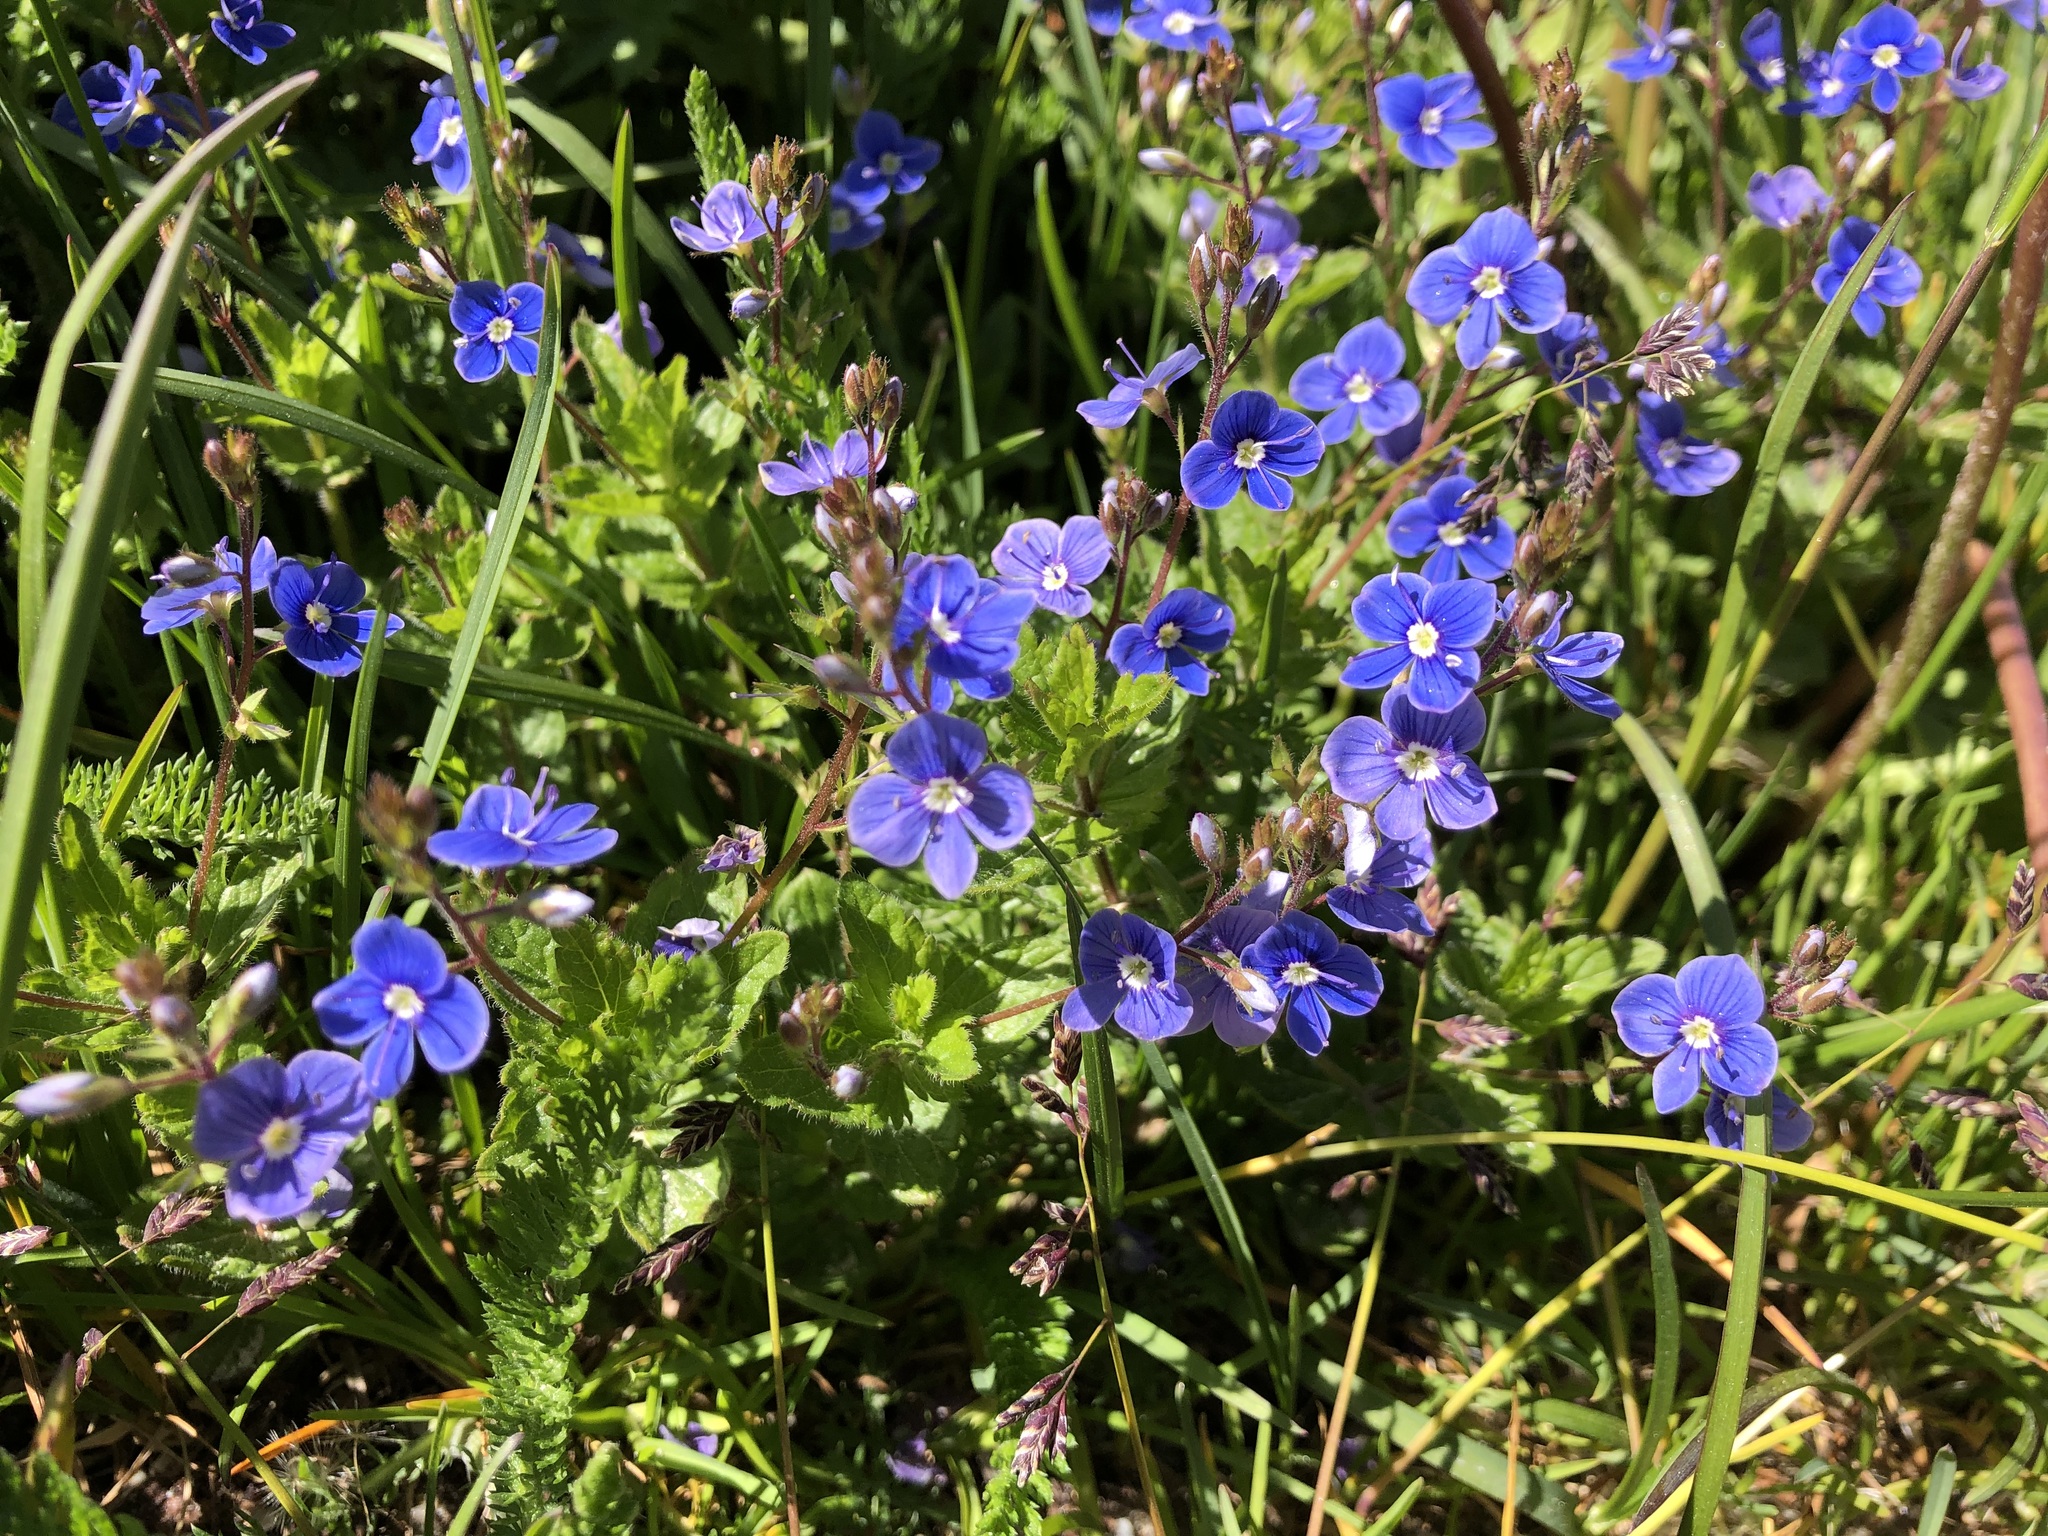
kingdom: Plantae
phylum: Tracheophyta
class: Magnoliopsida
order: Lamiales
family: Plantaginaceae
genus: Veronica
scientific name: Veronica chamaedrys
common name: Germander speedwell
